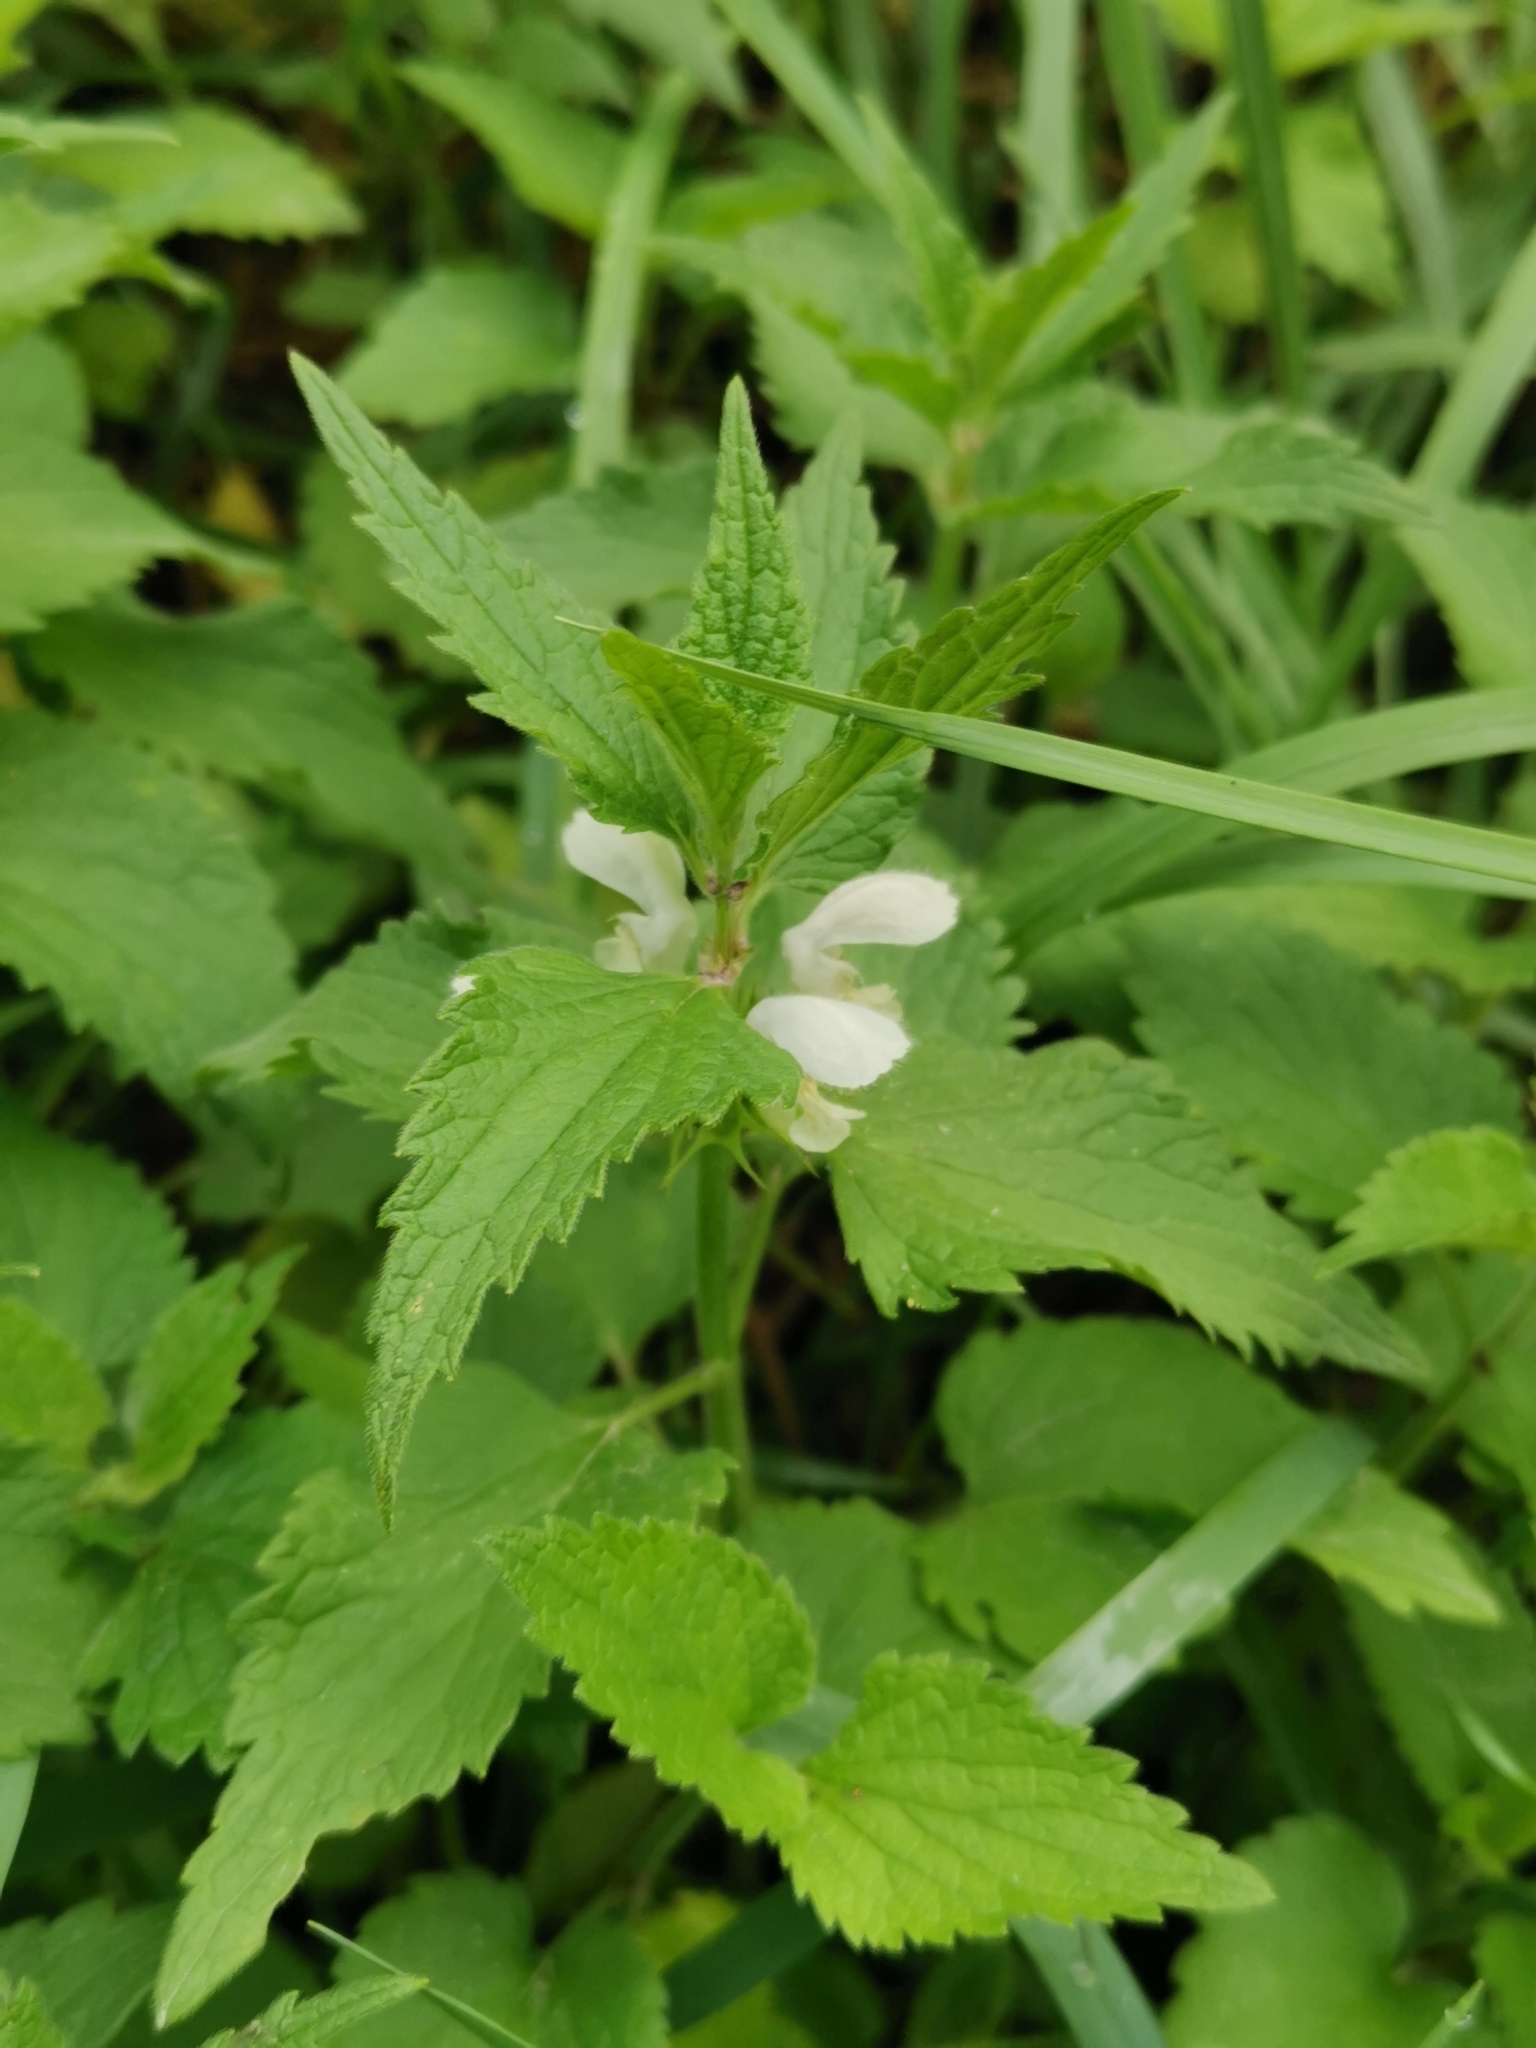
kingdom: Plantae
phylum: Tracheophyta
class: Magnoliopsida
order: Lamiales
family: Lamiaceae
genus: Lamium
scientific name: Lamium album
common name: White dead-nettle
